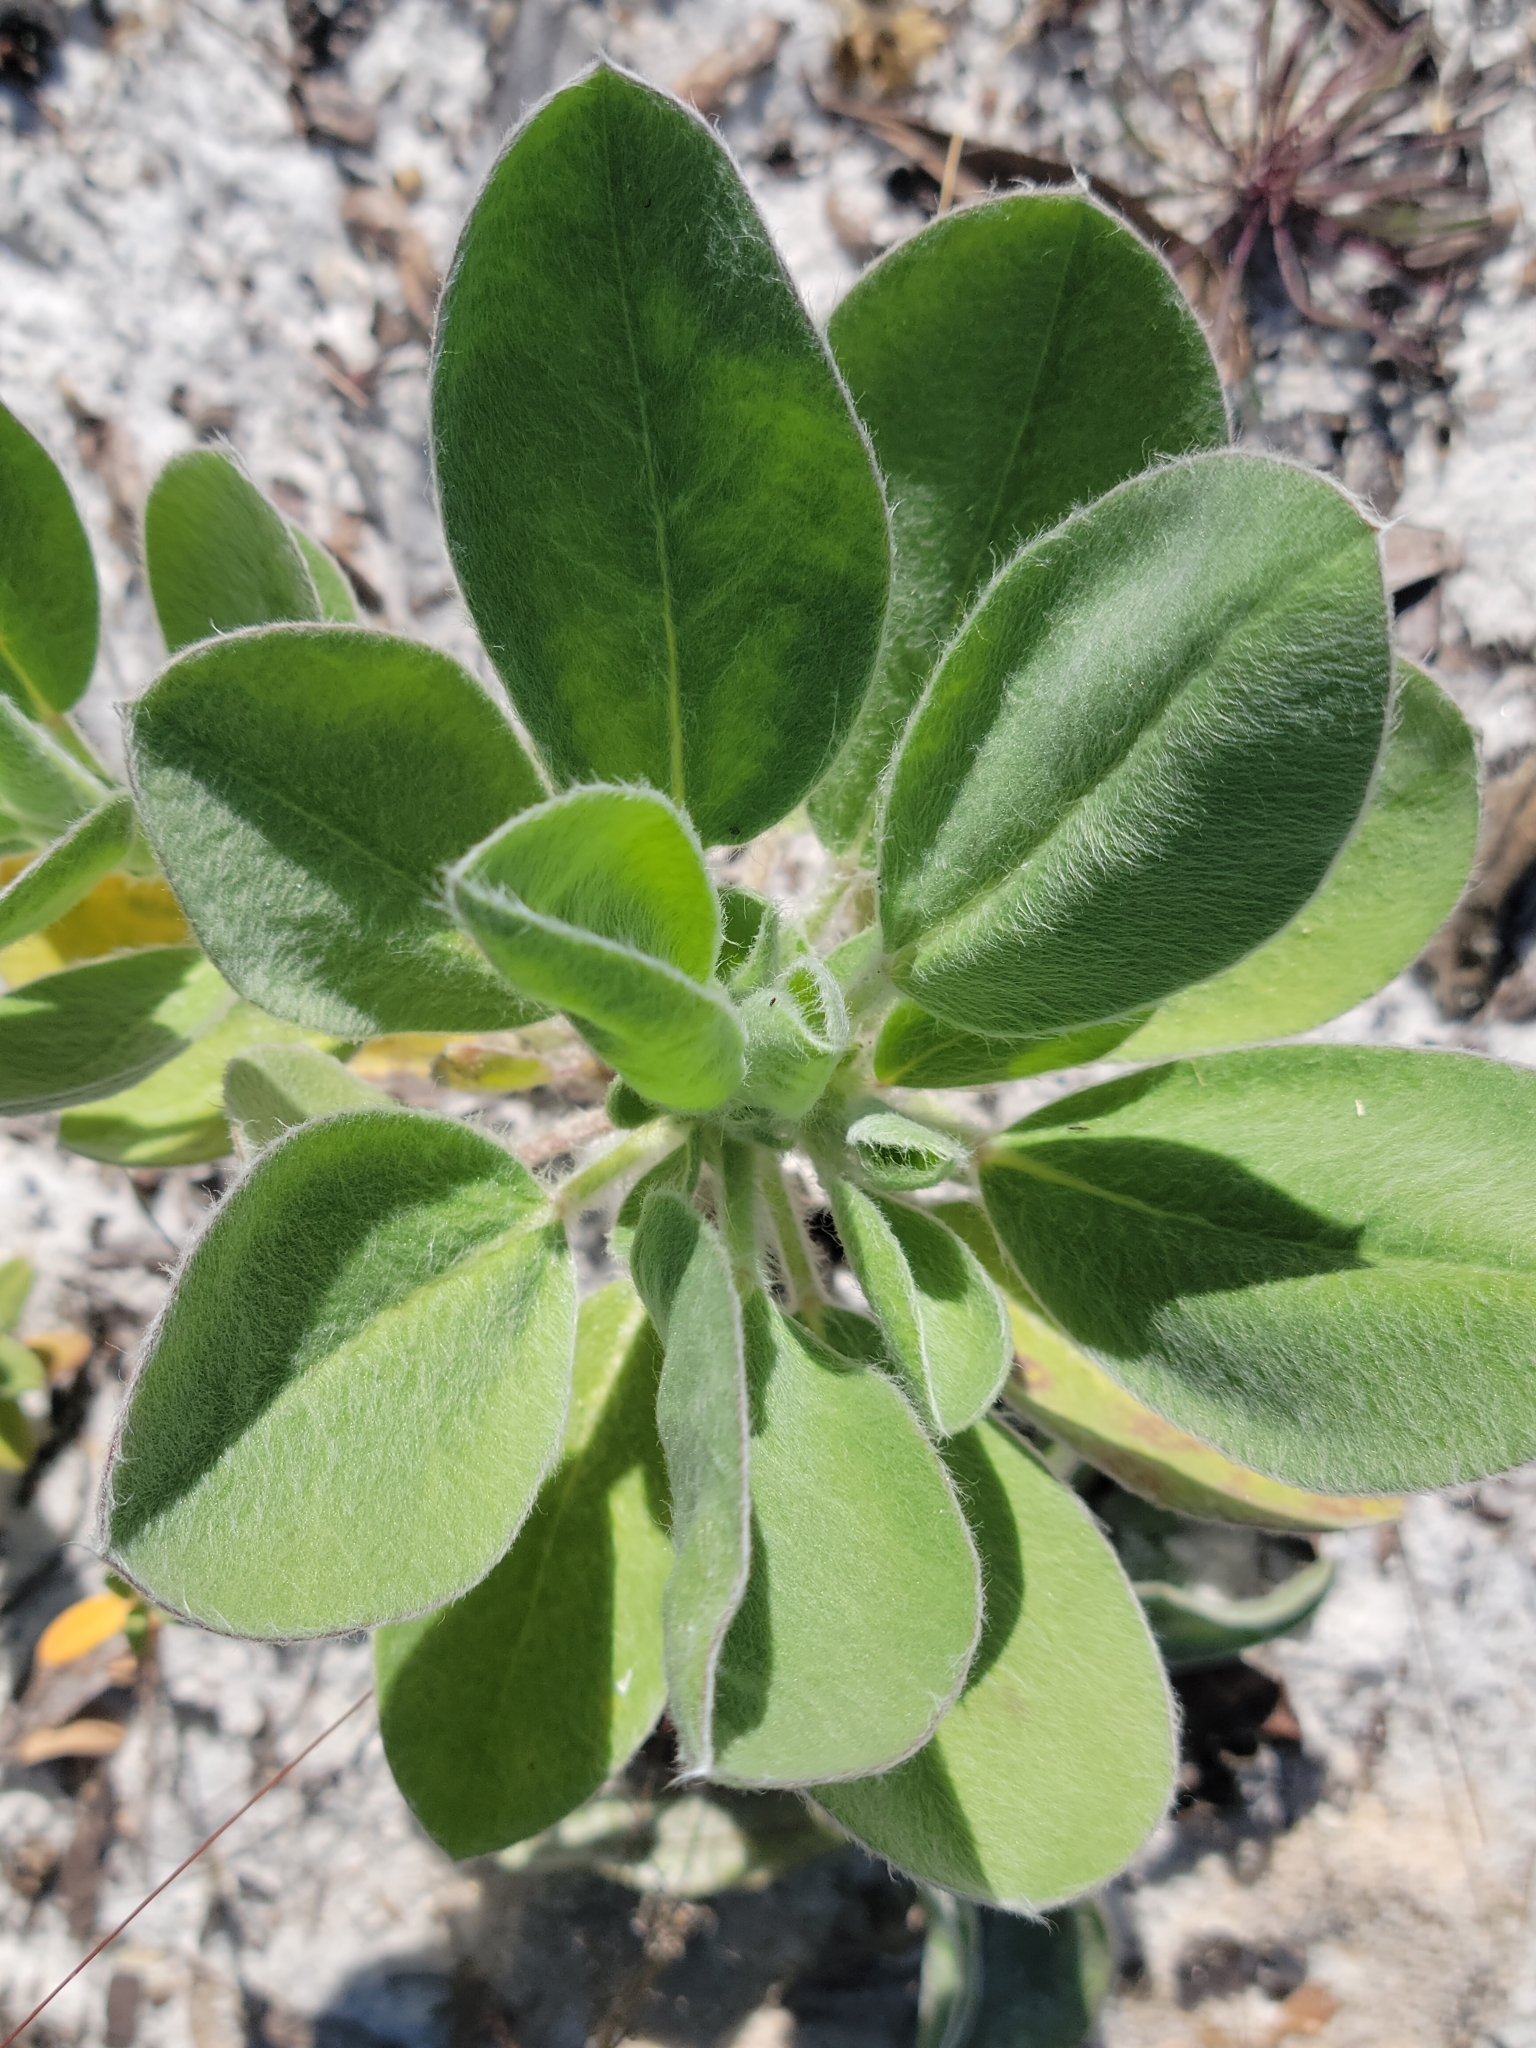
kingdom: Plantae
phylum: Tracheophyta
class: Magnoliopsida
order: Fabales
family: Fabaceae
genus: Lupinus
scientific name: Lupinus
